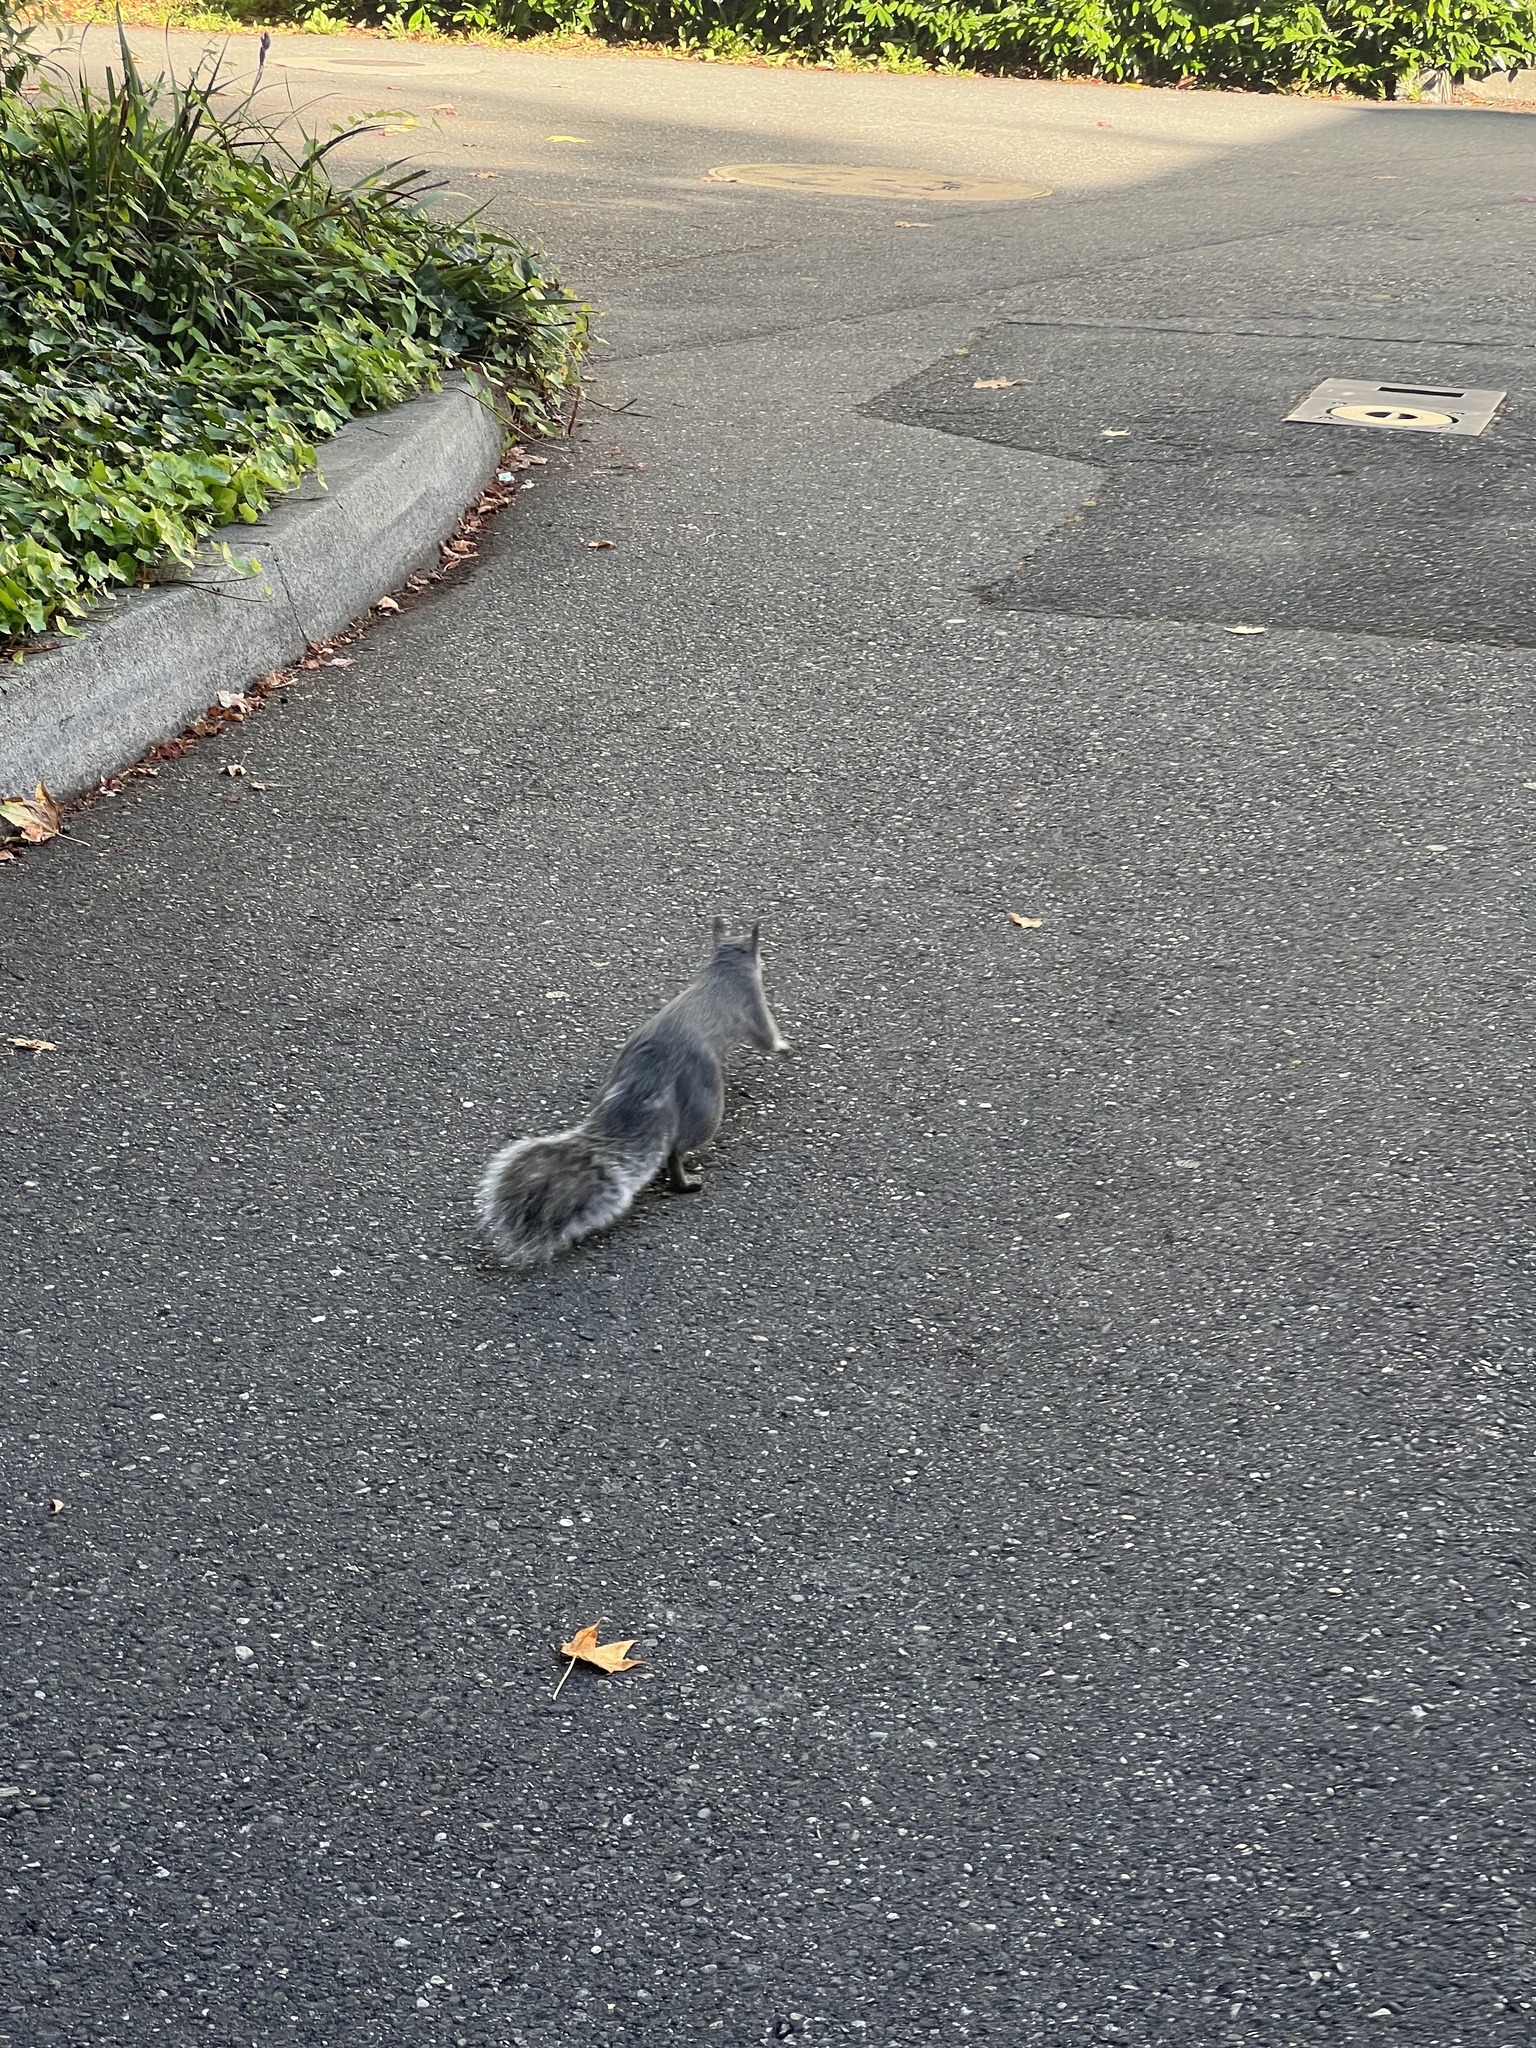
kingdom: Animalia
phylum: Chordata
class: Mammalia
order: Rodentia
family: Sciuridae
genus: Sciurus
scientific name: Sciurus griseus
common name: Western gray squirrel
